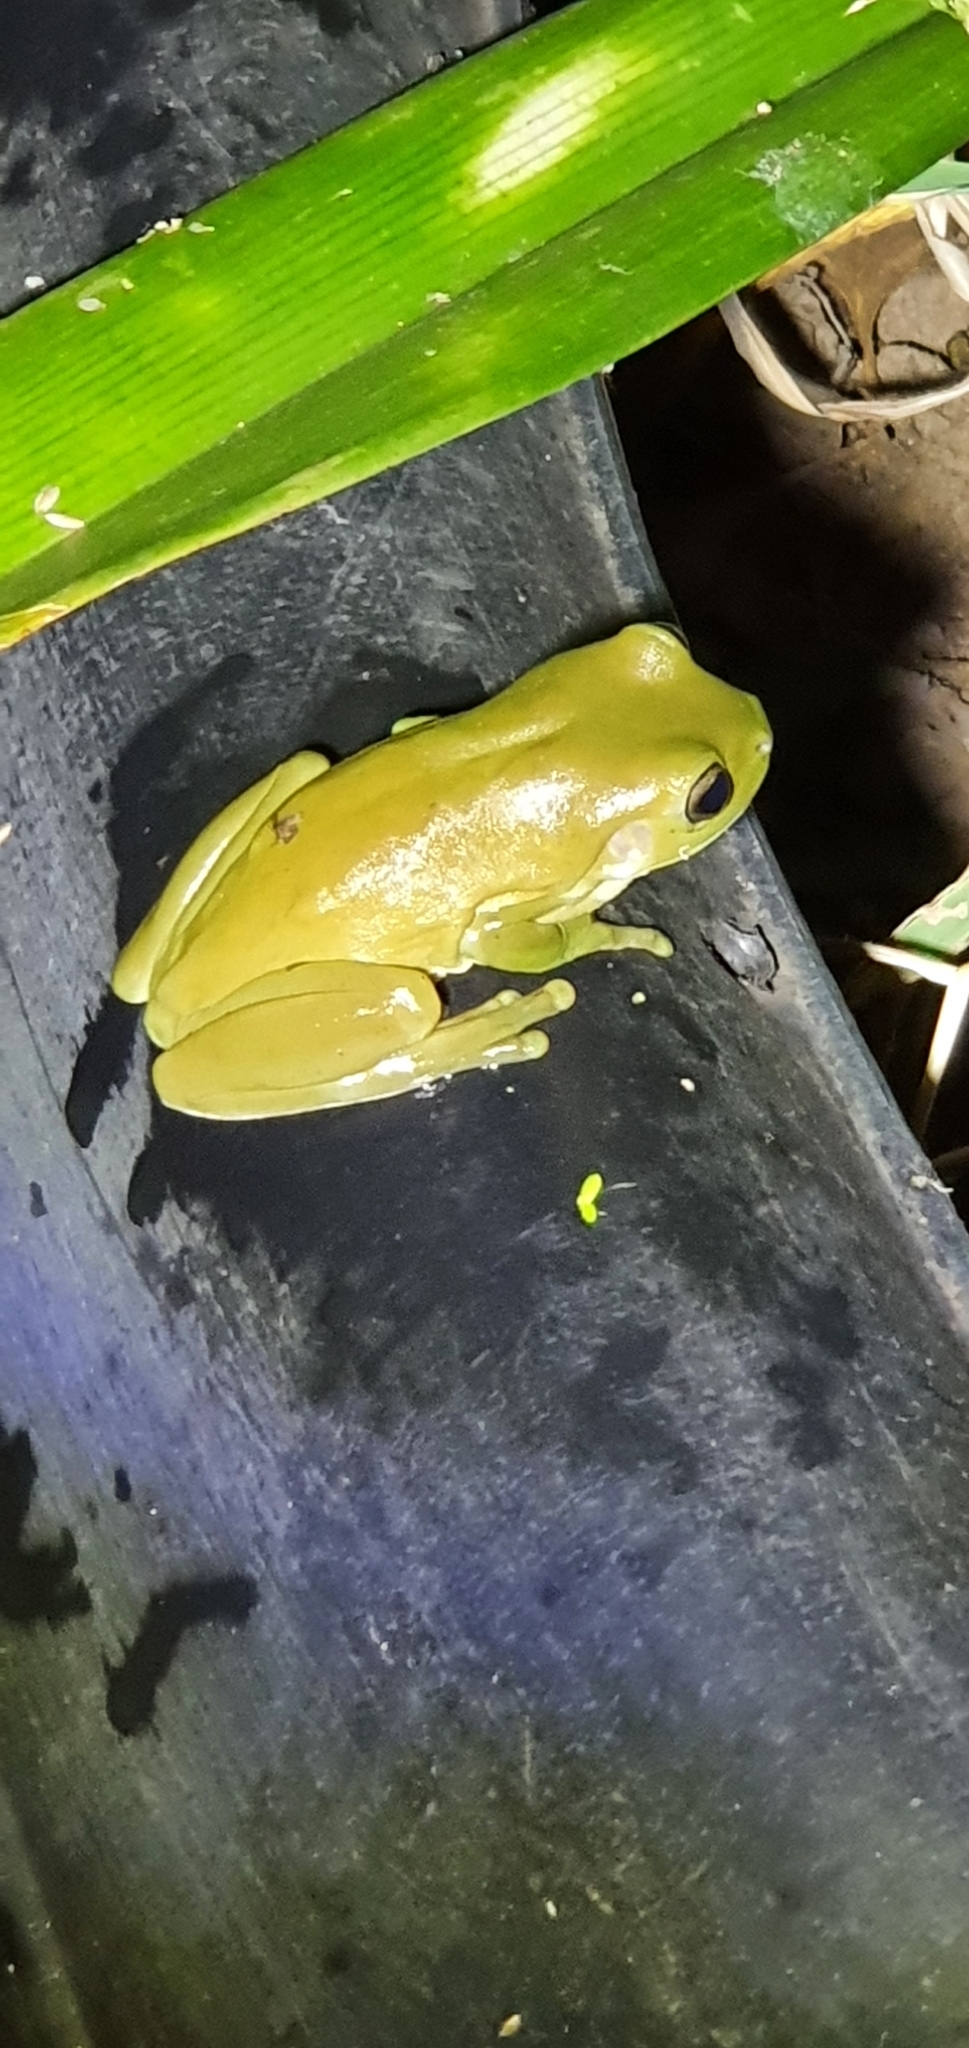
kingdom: Animalia
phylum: Chordata
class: Amphibia
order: Anura
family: Pelodryadidae
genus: Ranoidea
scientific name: Ranoidea caerulea
